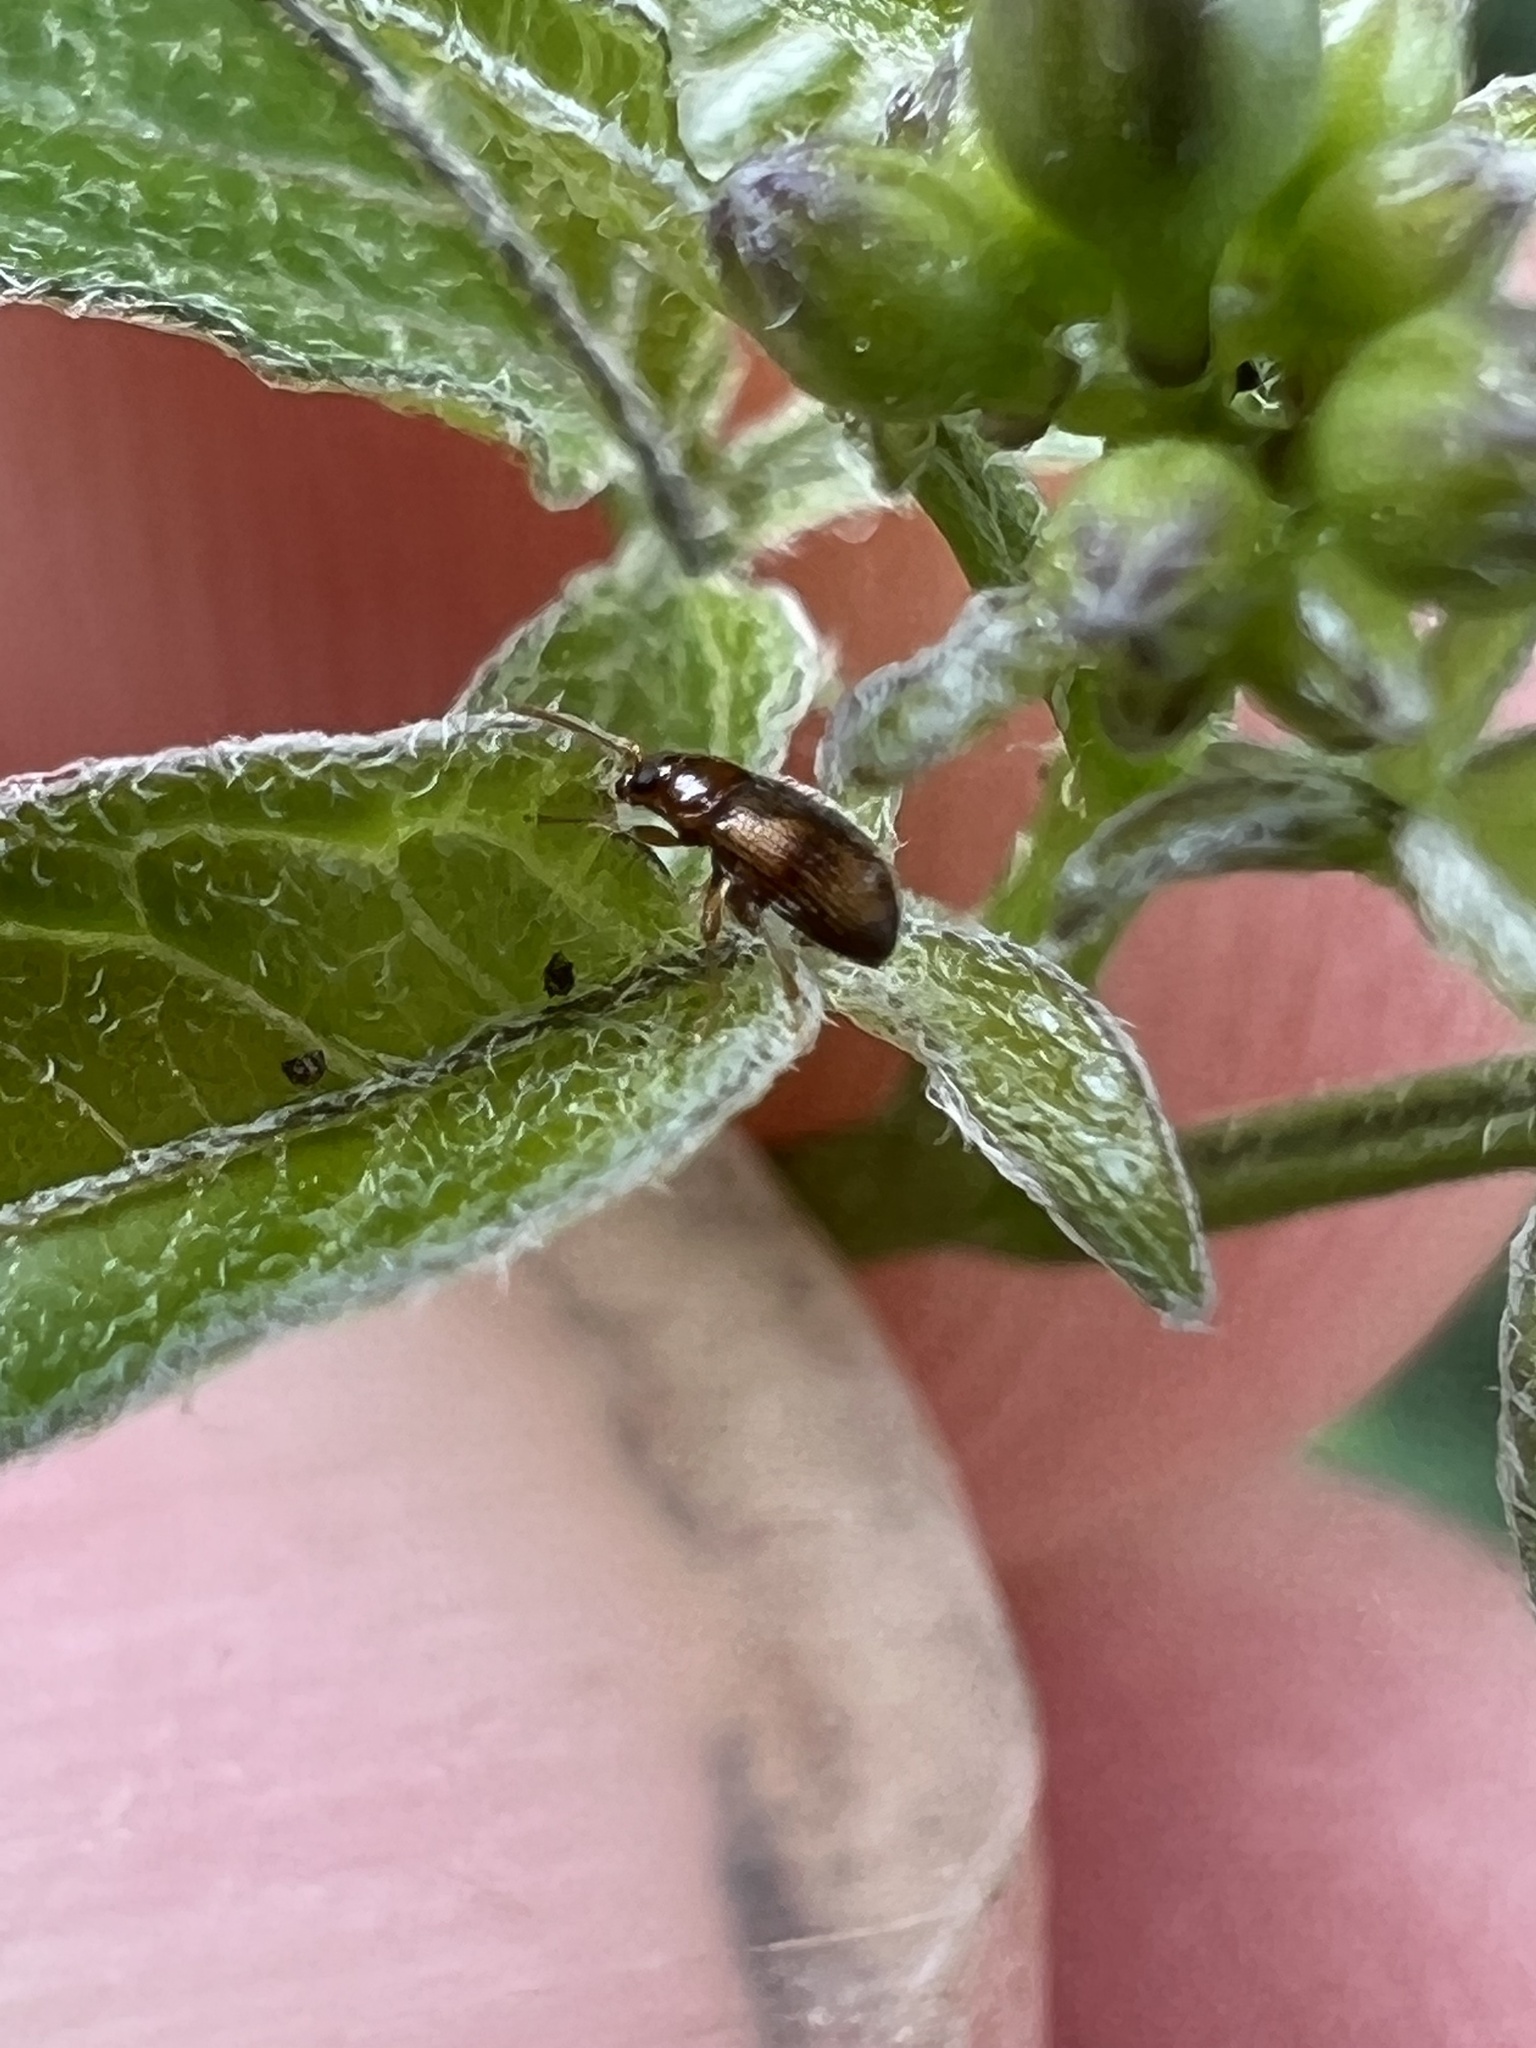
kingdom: Animalia
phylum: Arthropoda
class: Insecta
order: Coleoptera
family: Chrysomelidae
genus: Epitrix
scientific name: Epitrix fasciata
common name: Leaf beetle
